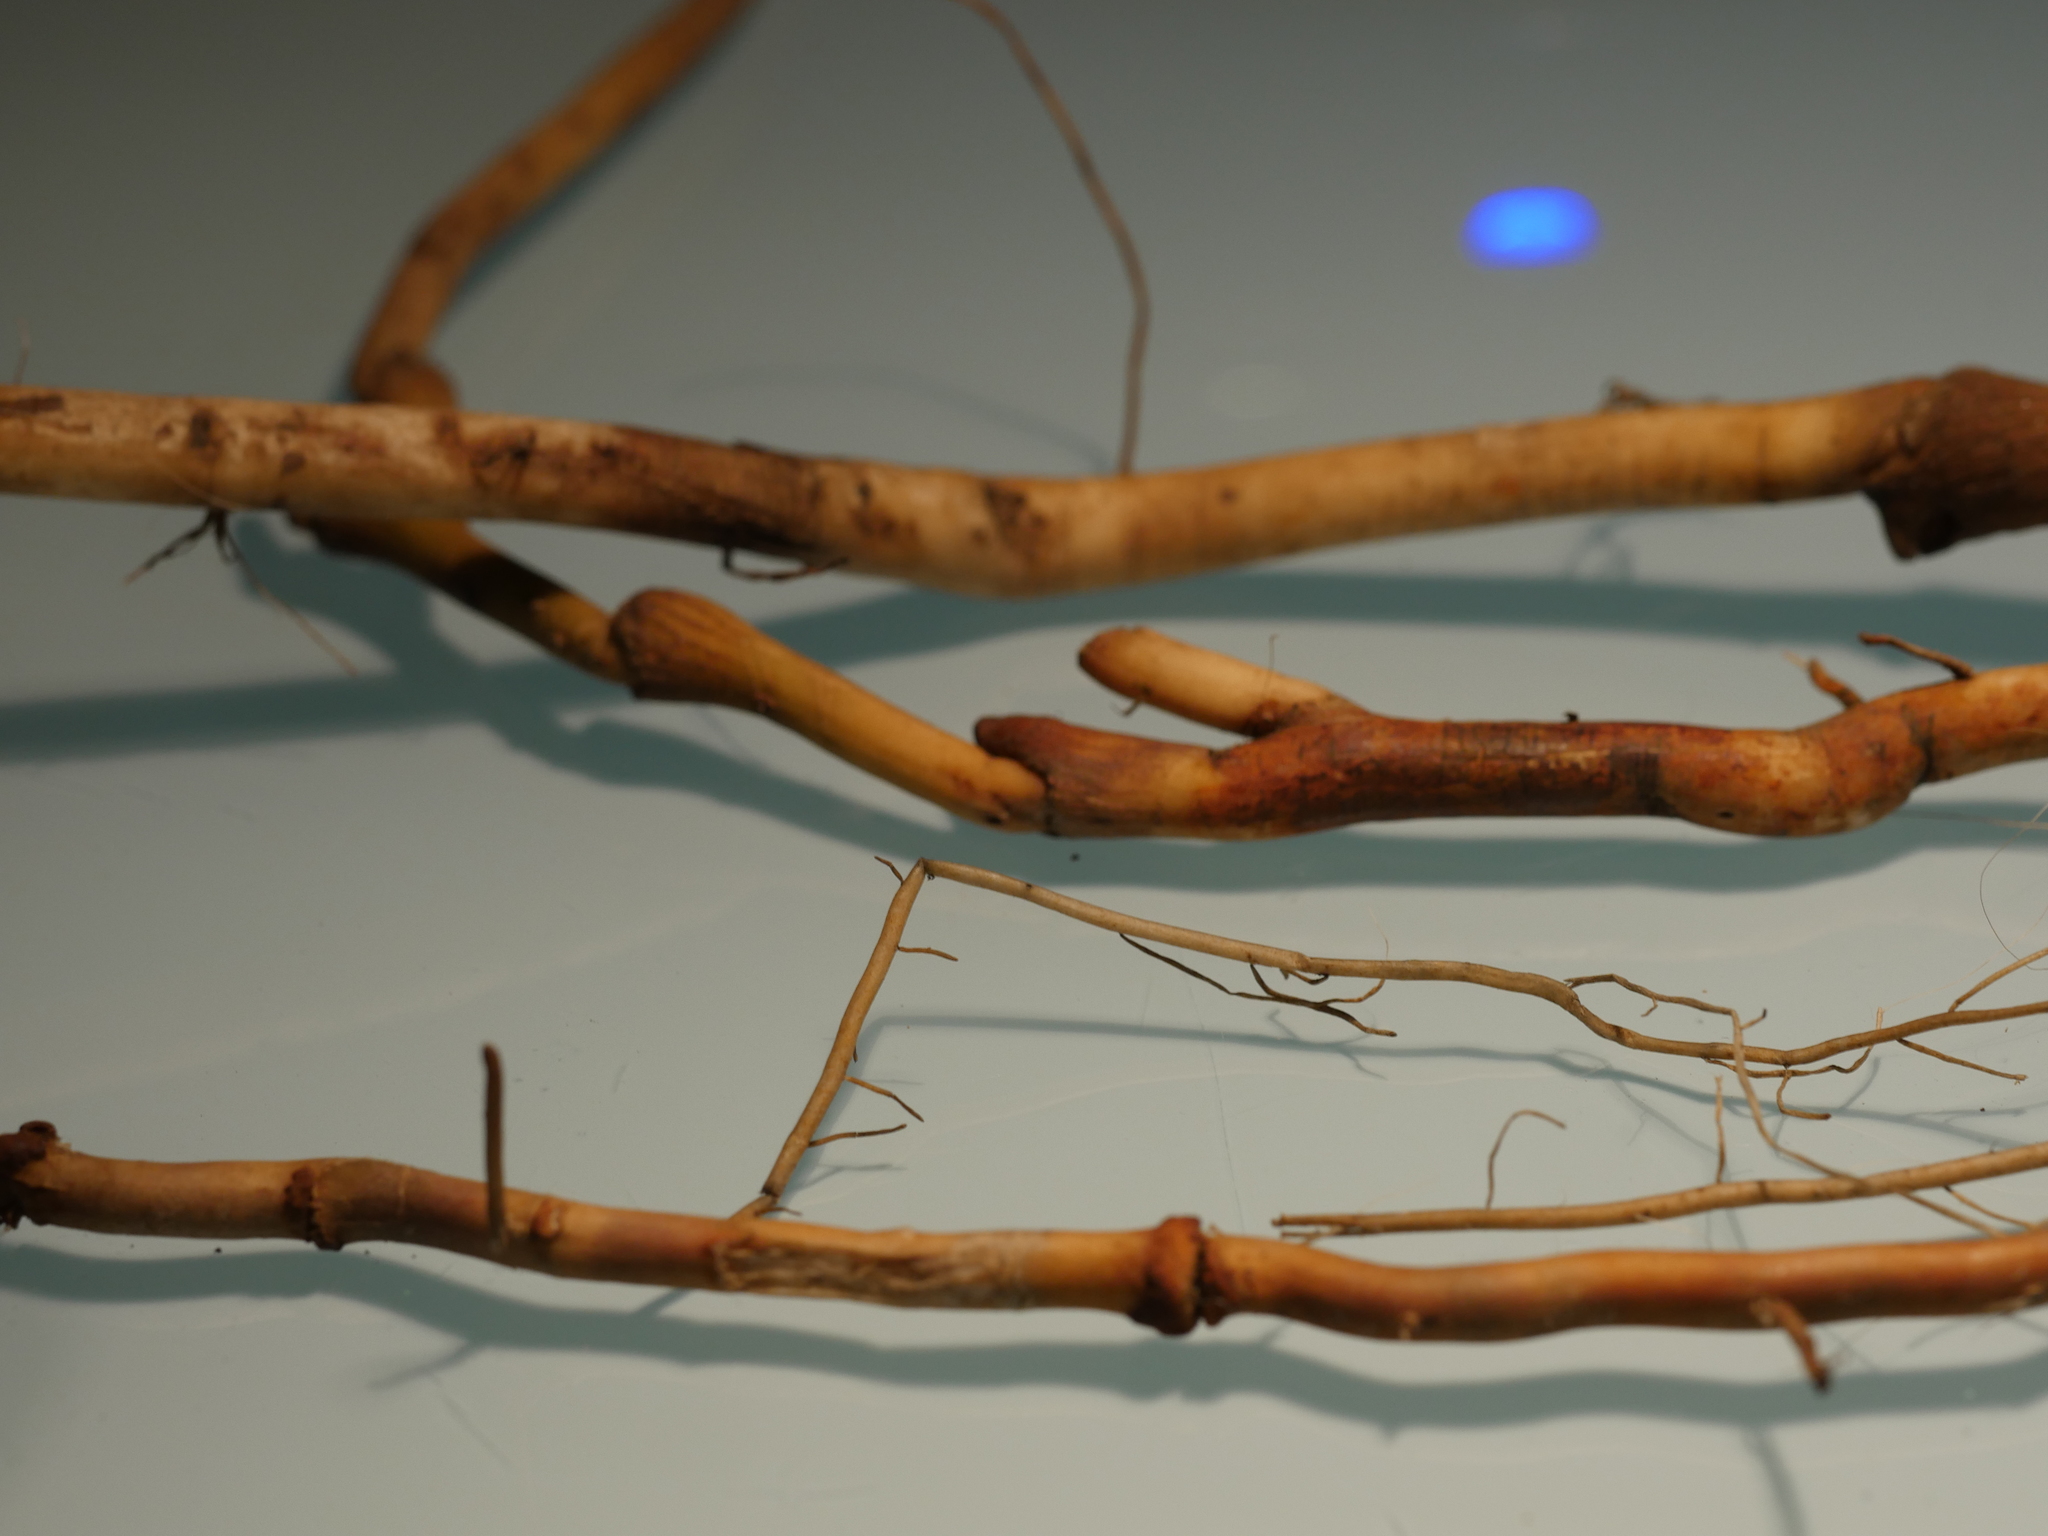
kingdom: Plantae
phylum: Tracheophyta
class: Liliopsida
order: Arecales
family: Arecaceae
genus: Rhopalostylis
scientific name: Rhopalostylis sapida
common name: Feather-duster palm
